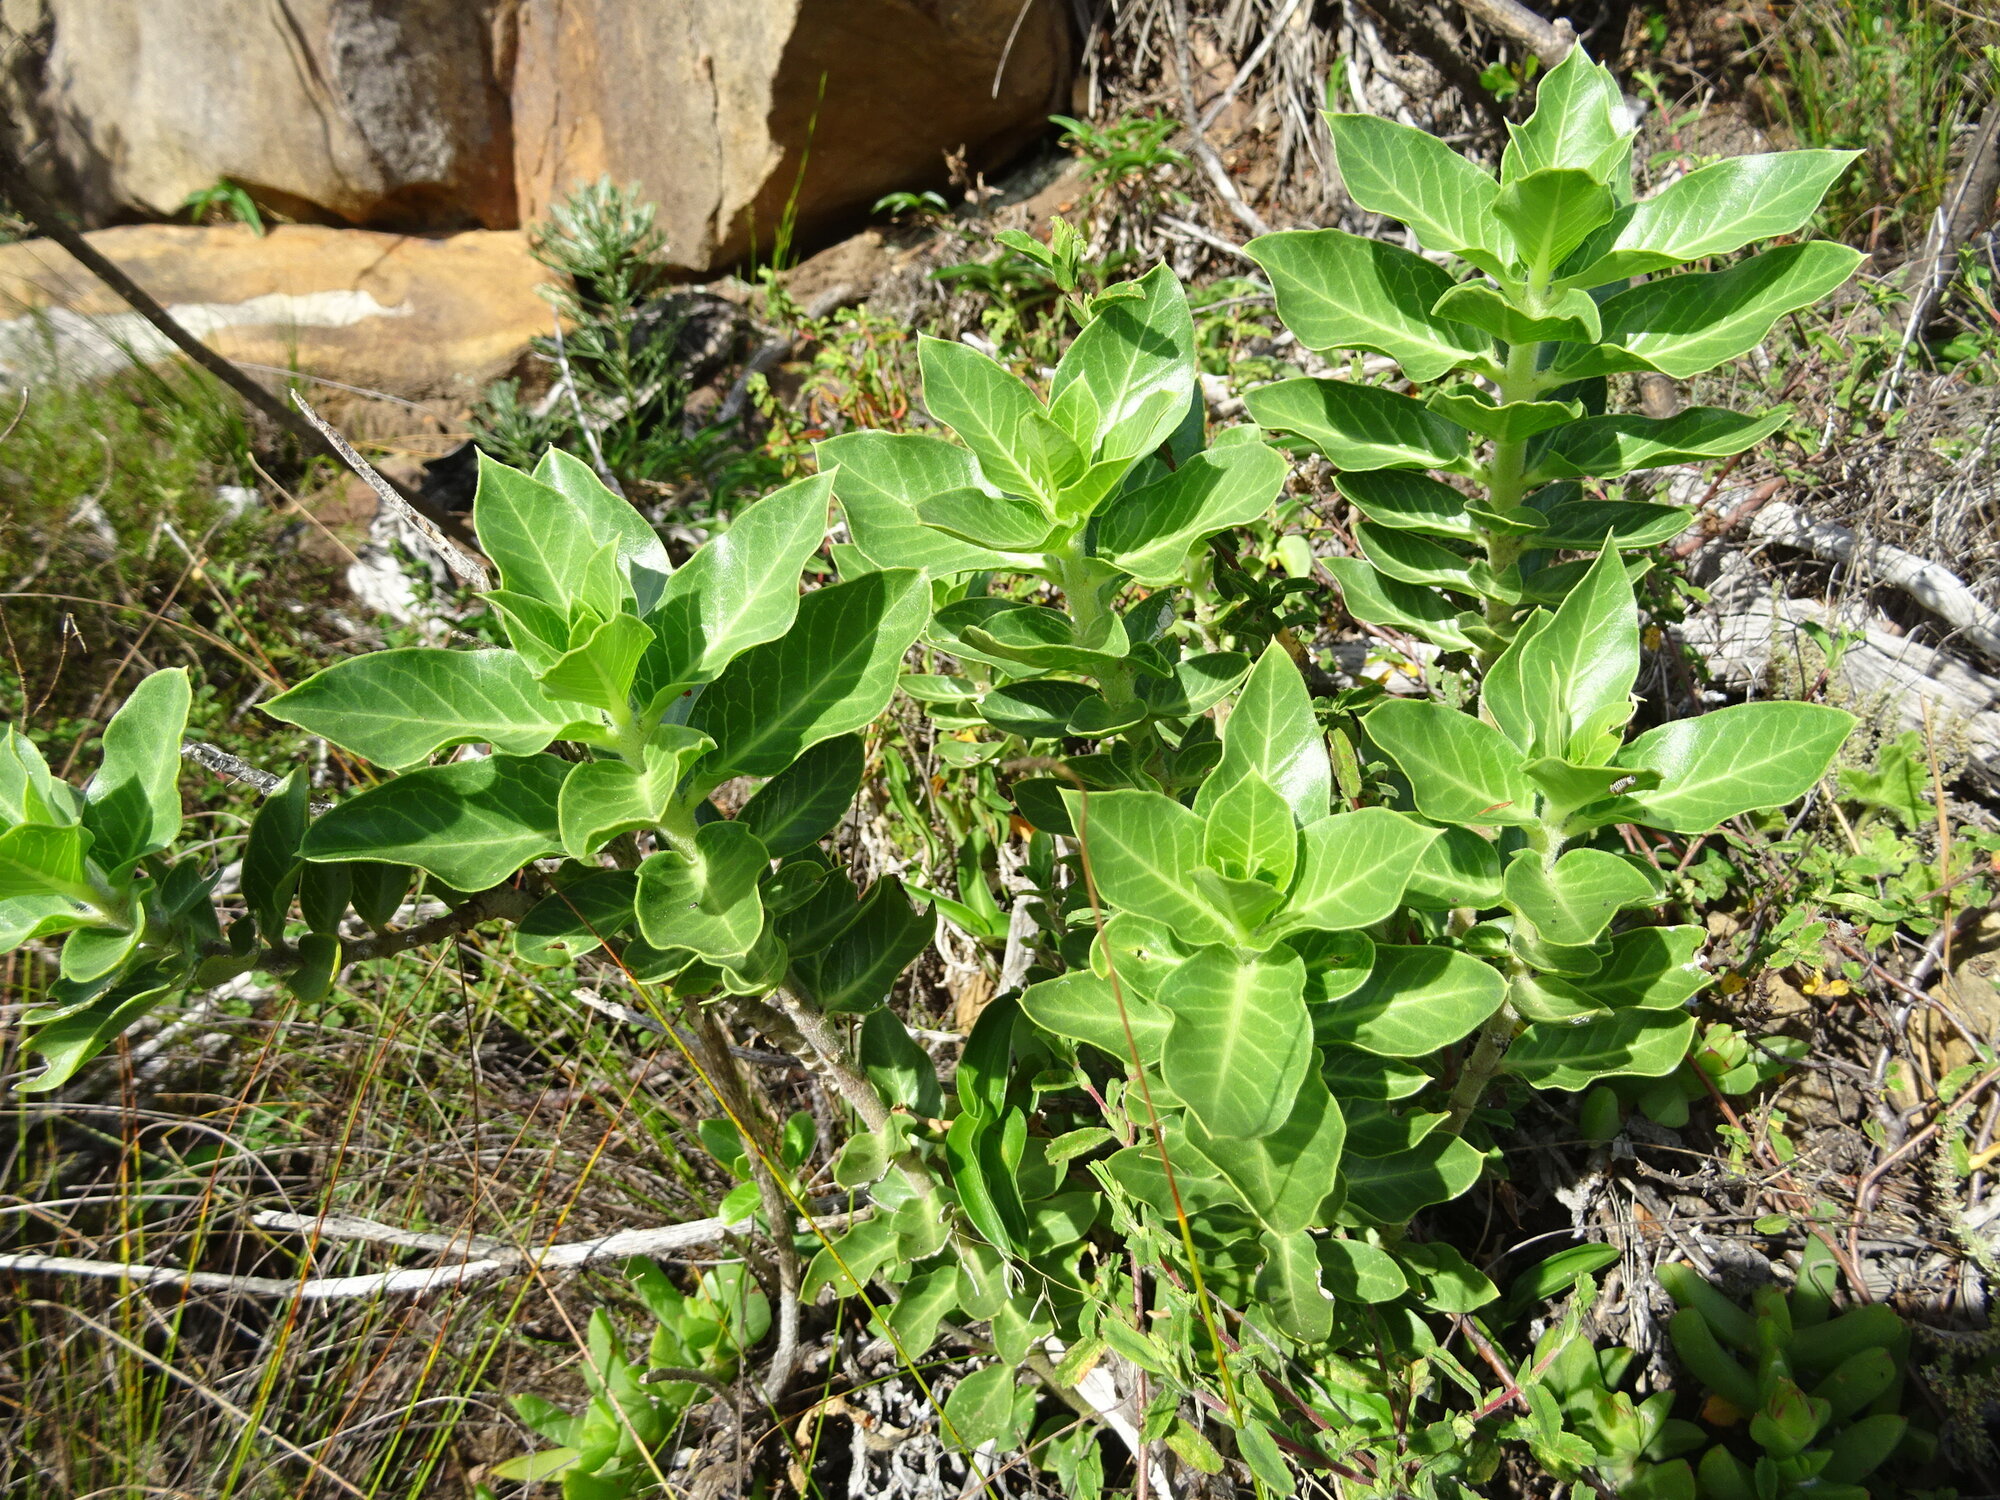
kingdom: Plantae
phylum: Tracheophyta
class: Magnoliopsida
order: Gentianales
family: Apocynaceae
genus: Gomphocarpus
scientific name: Gomphocarpus cancellatus
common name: Wild cotton
